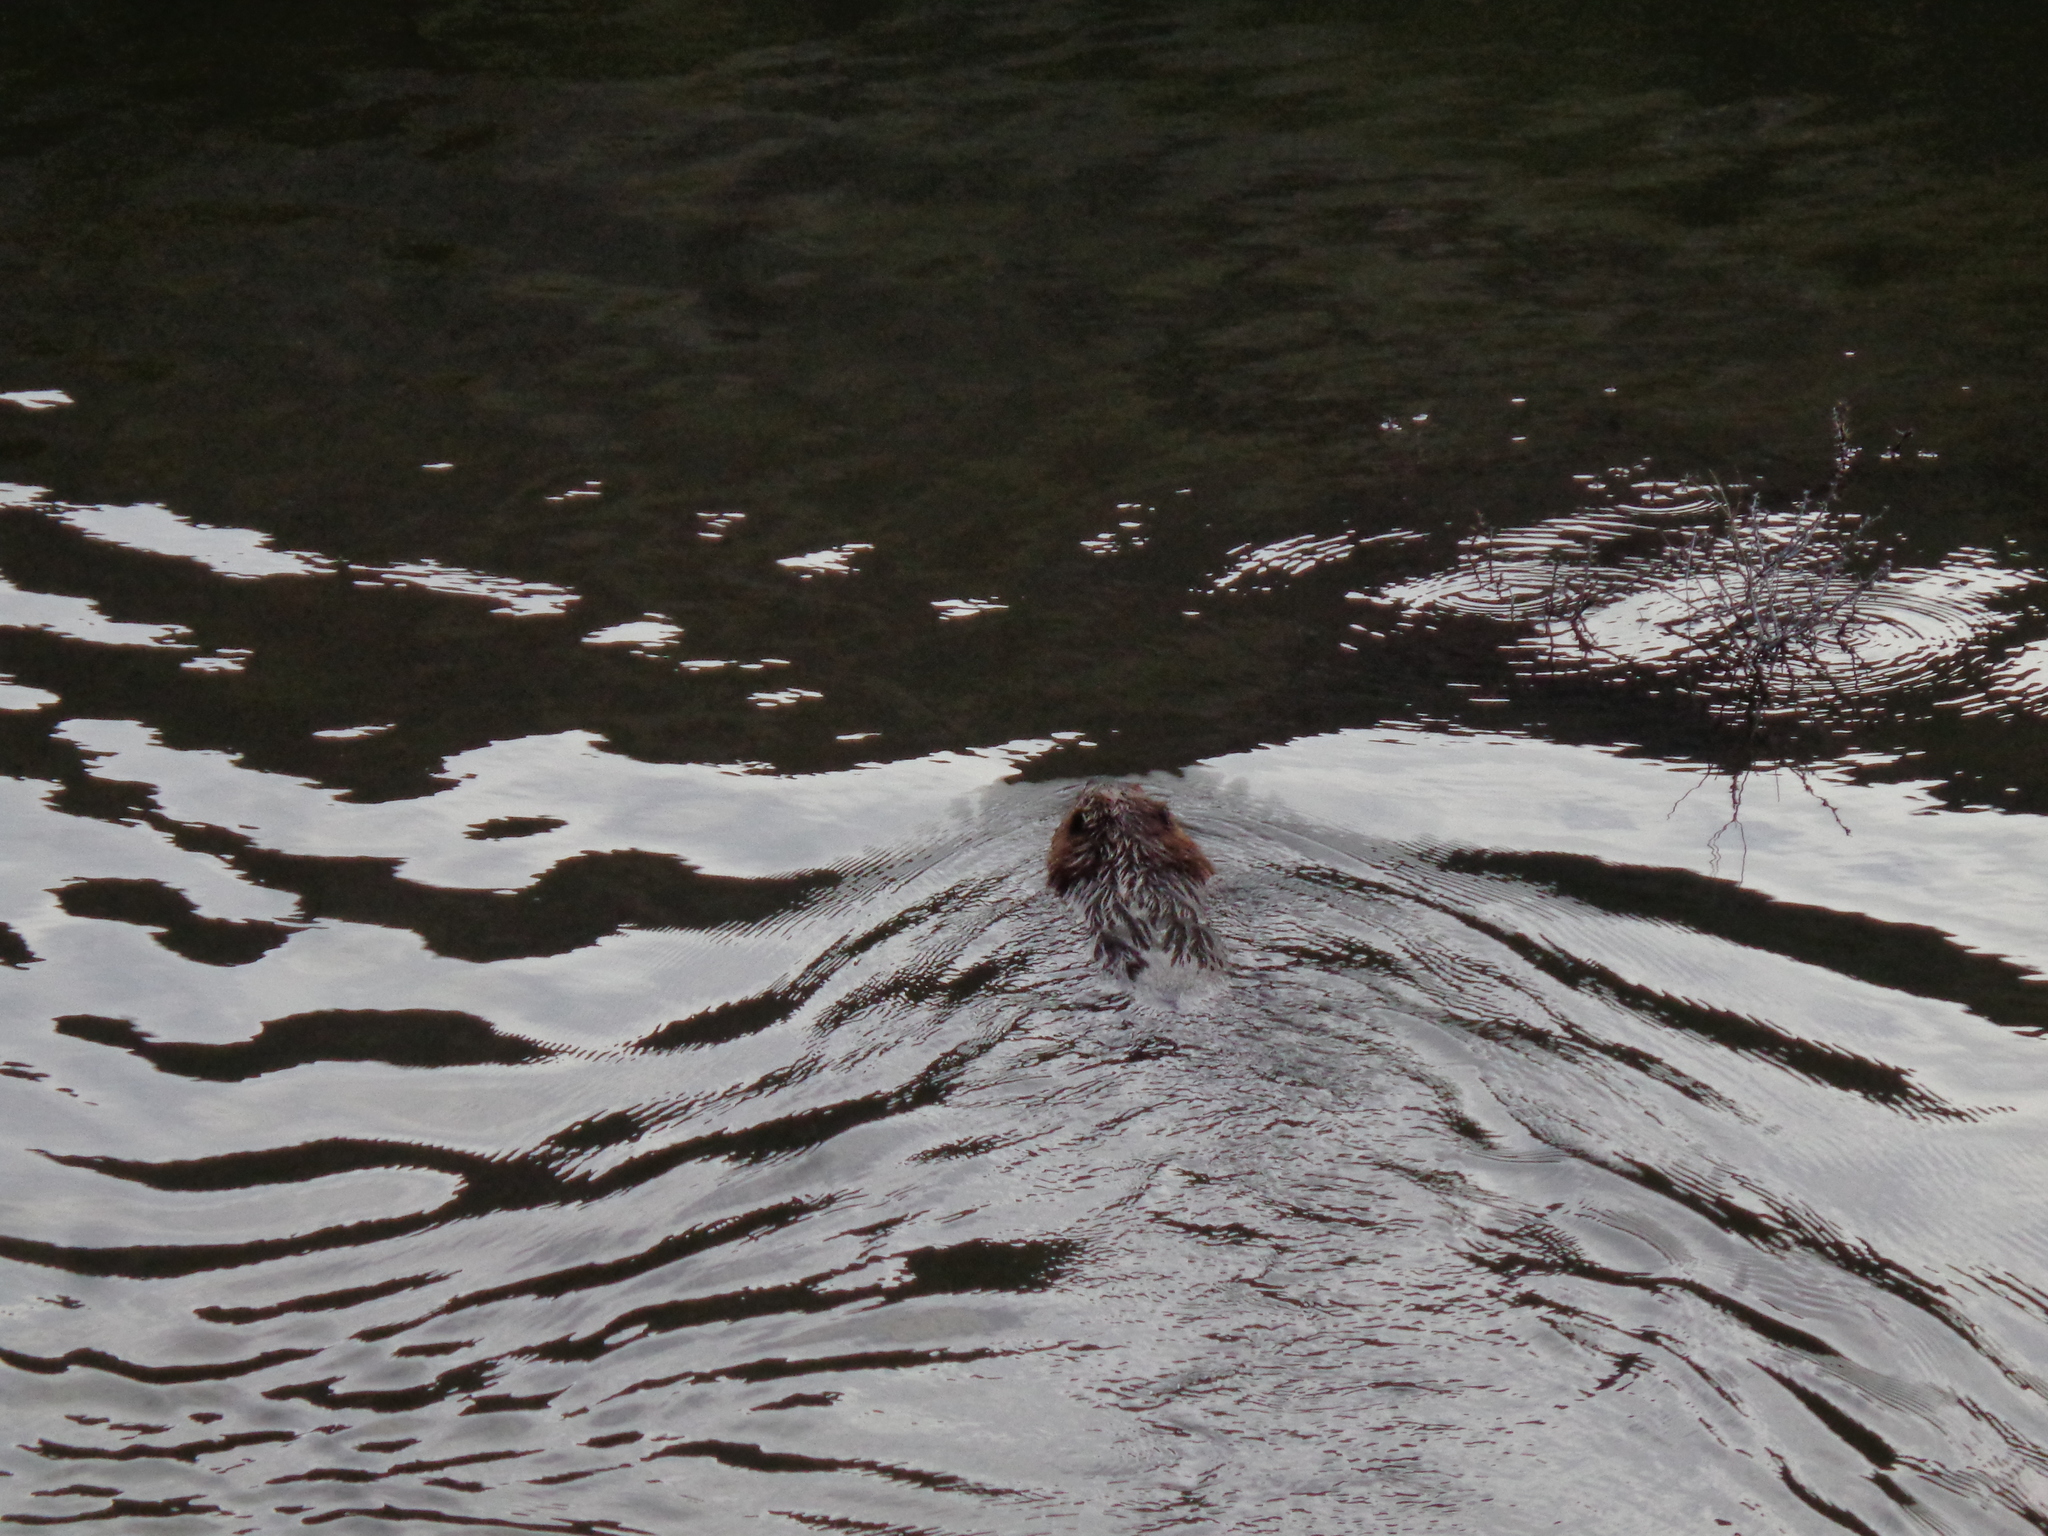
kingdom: Animalia
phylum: Chordata
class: Mammalia
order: Rodentia
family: Castoridae
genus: Castor
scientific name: Castor canadensis
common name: American beaver
